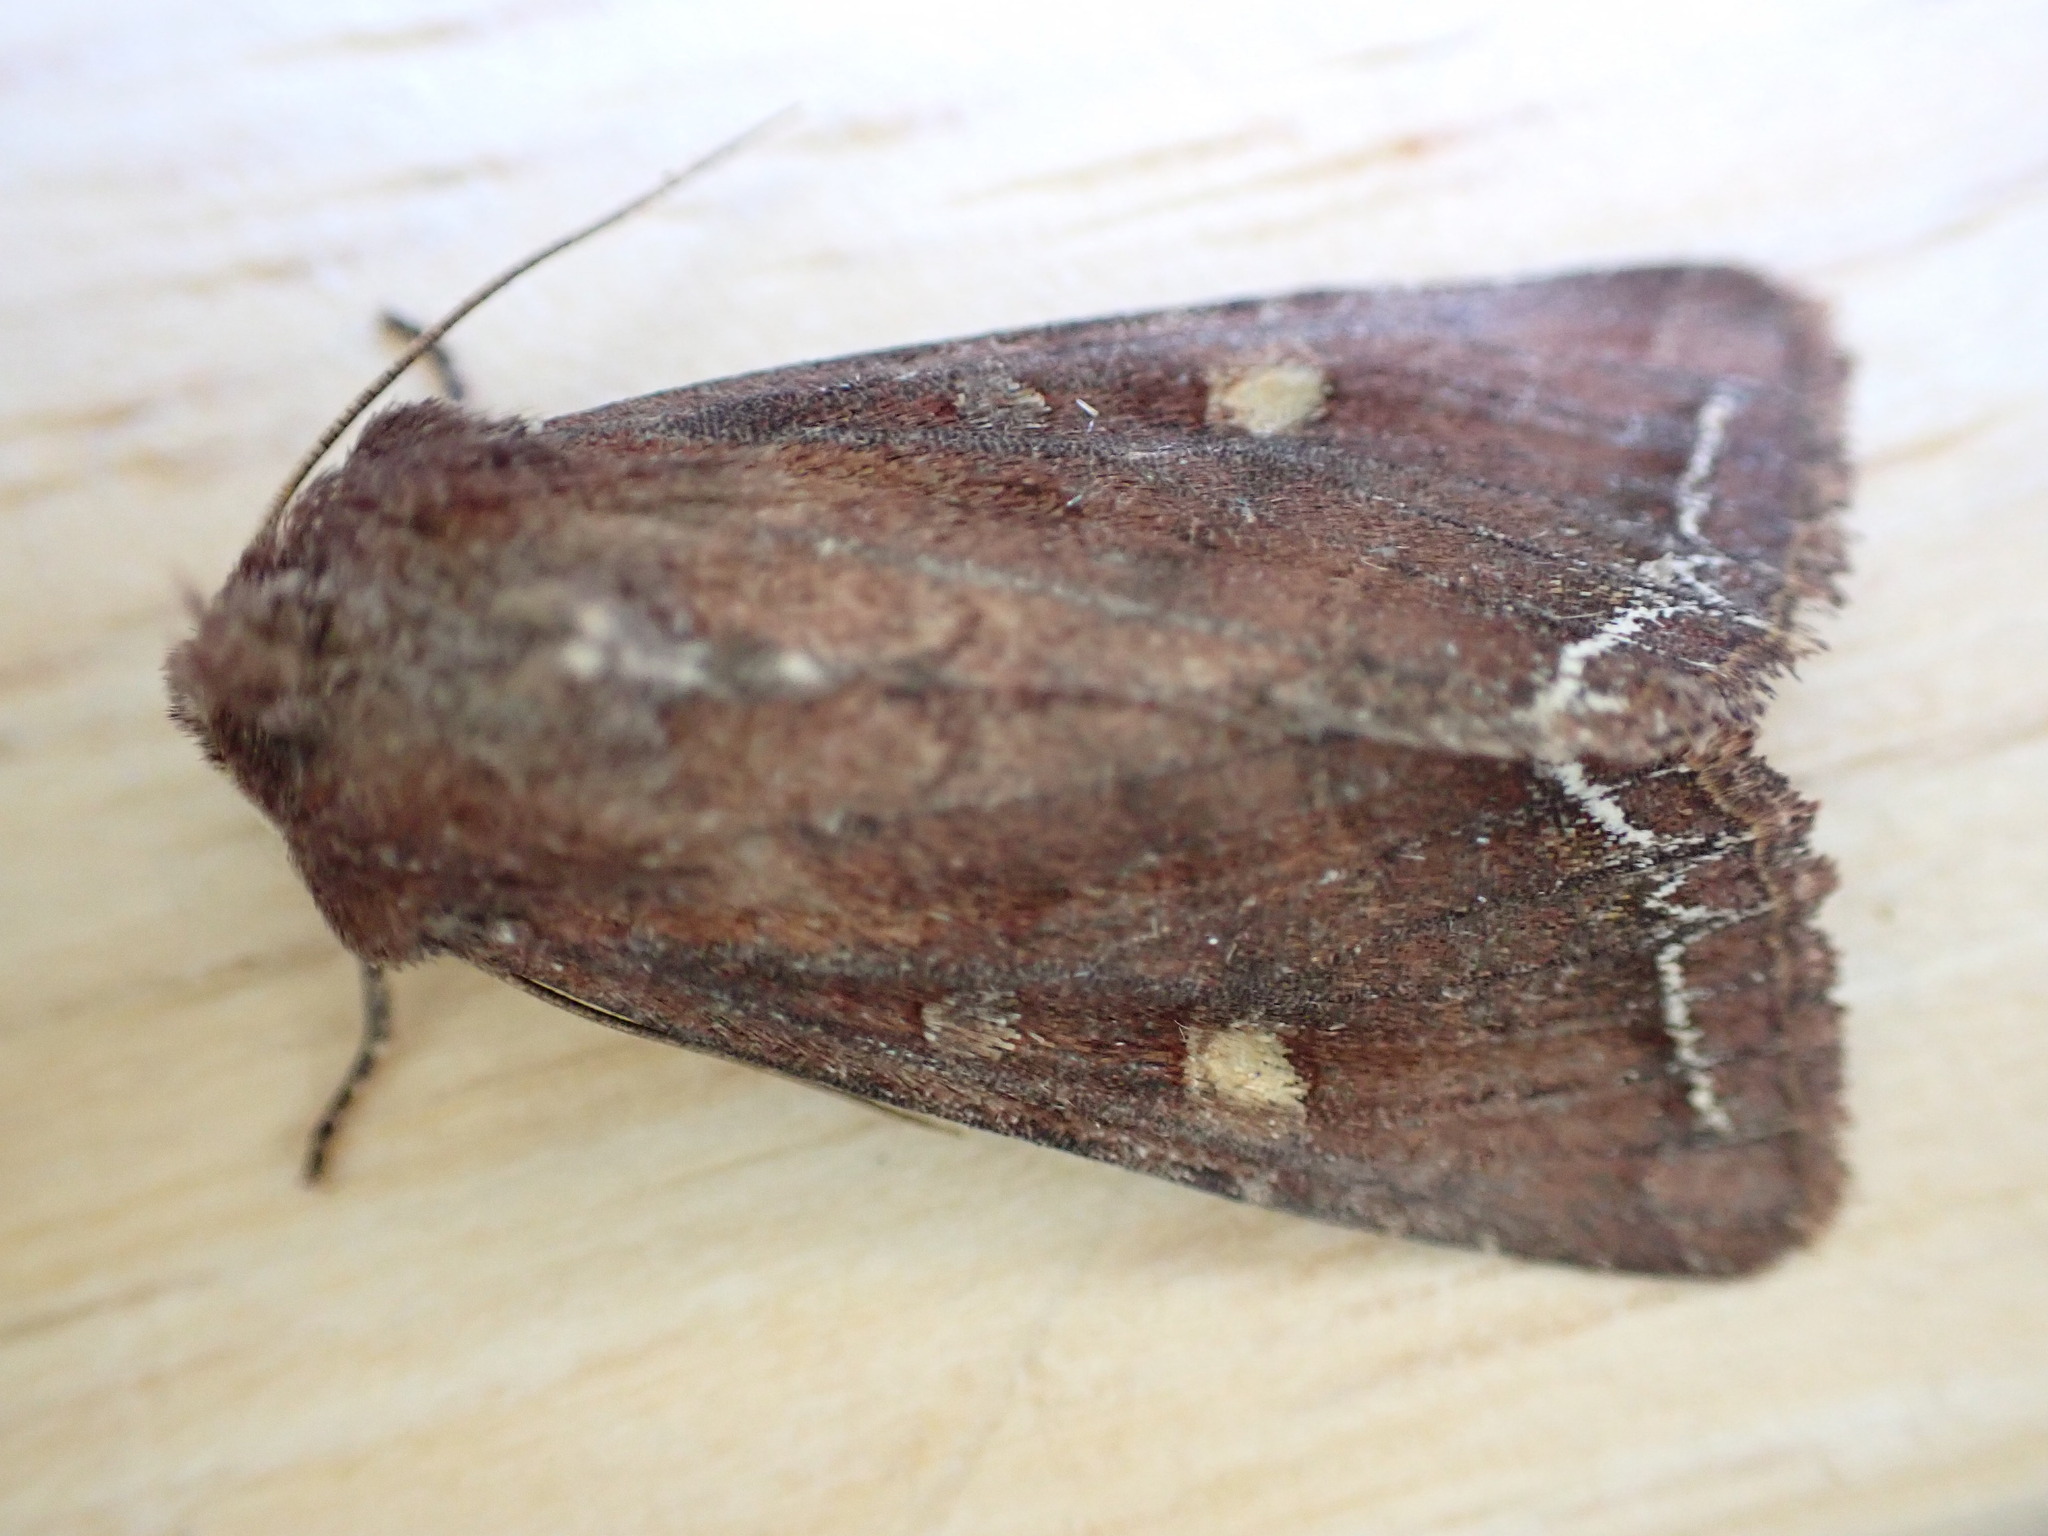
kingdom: Animalia
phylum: Arthropoda
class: Insecta
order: Lepidoptera
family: Noctuidae
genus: Lacanobia
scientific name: Lacanobia oleracea
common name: Bright-line brown-eye
